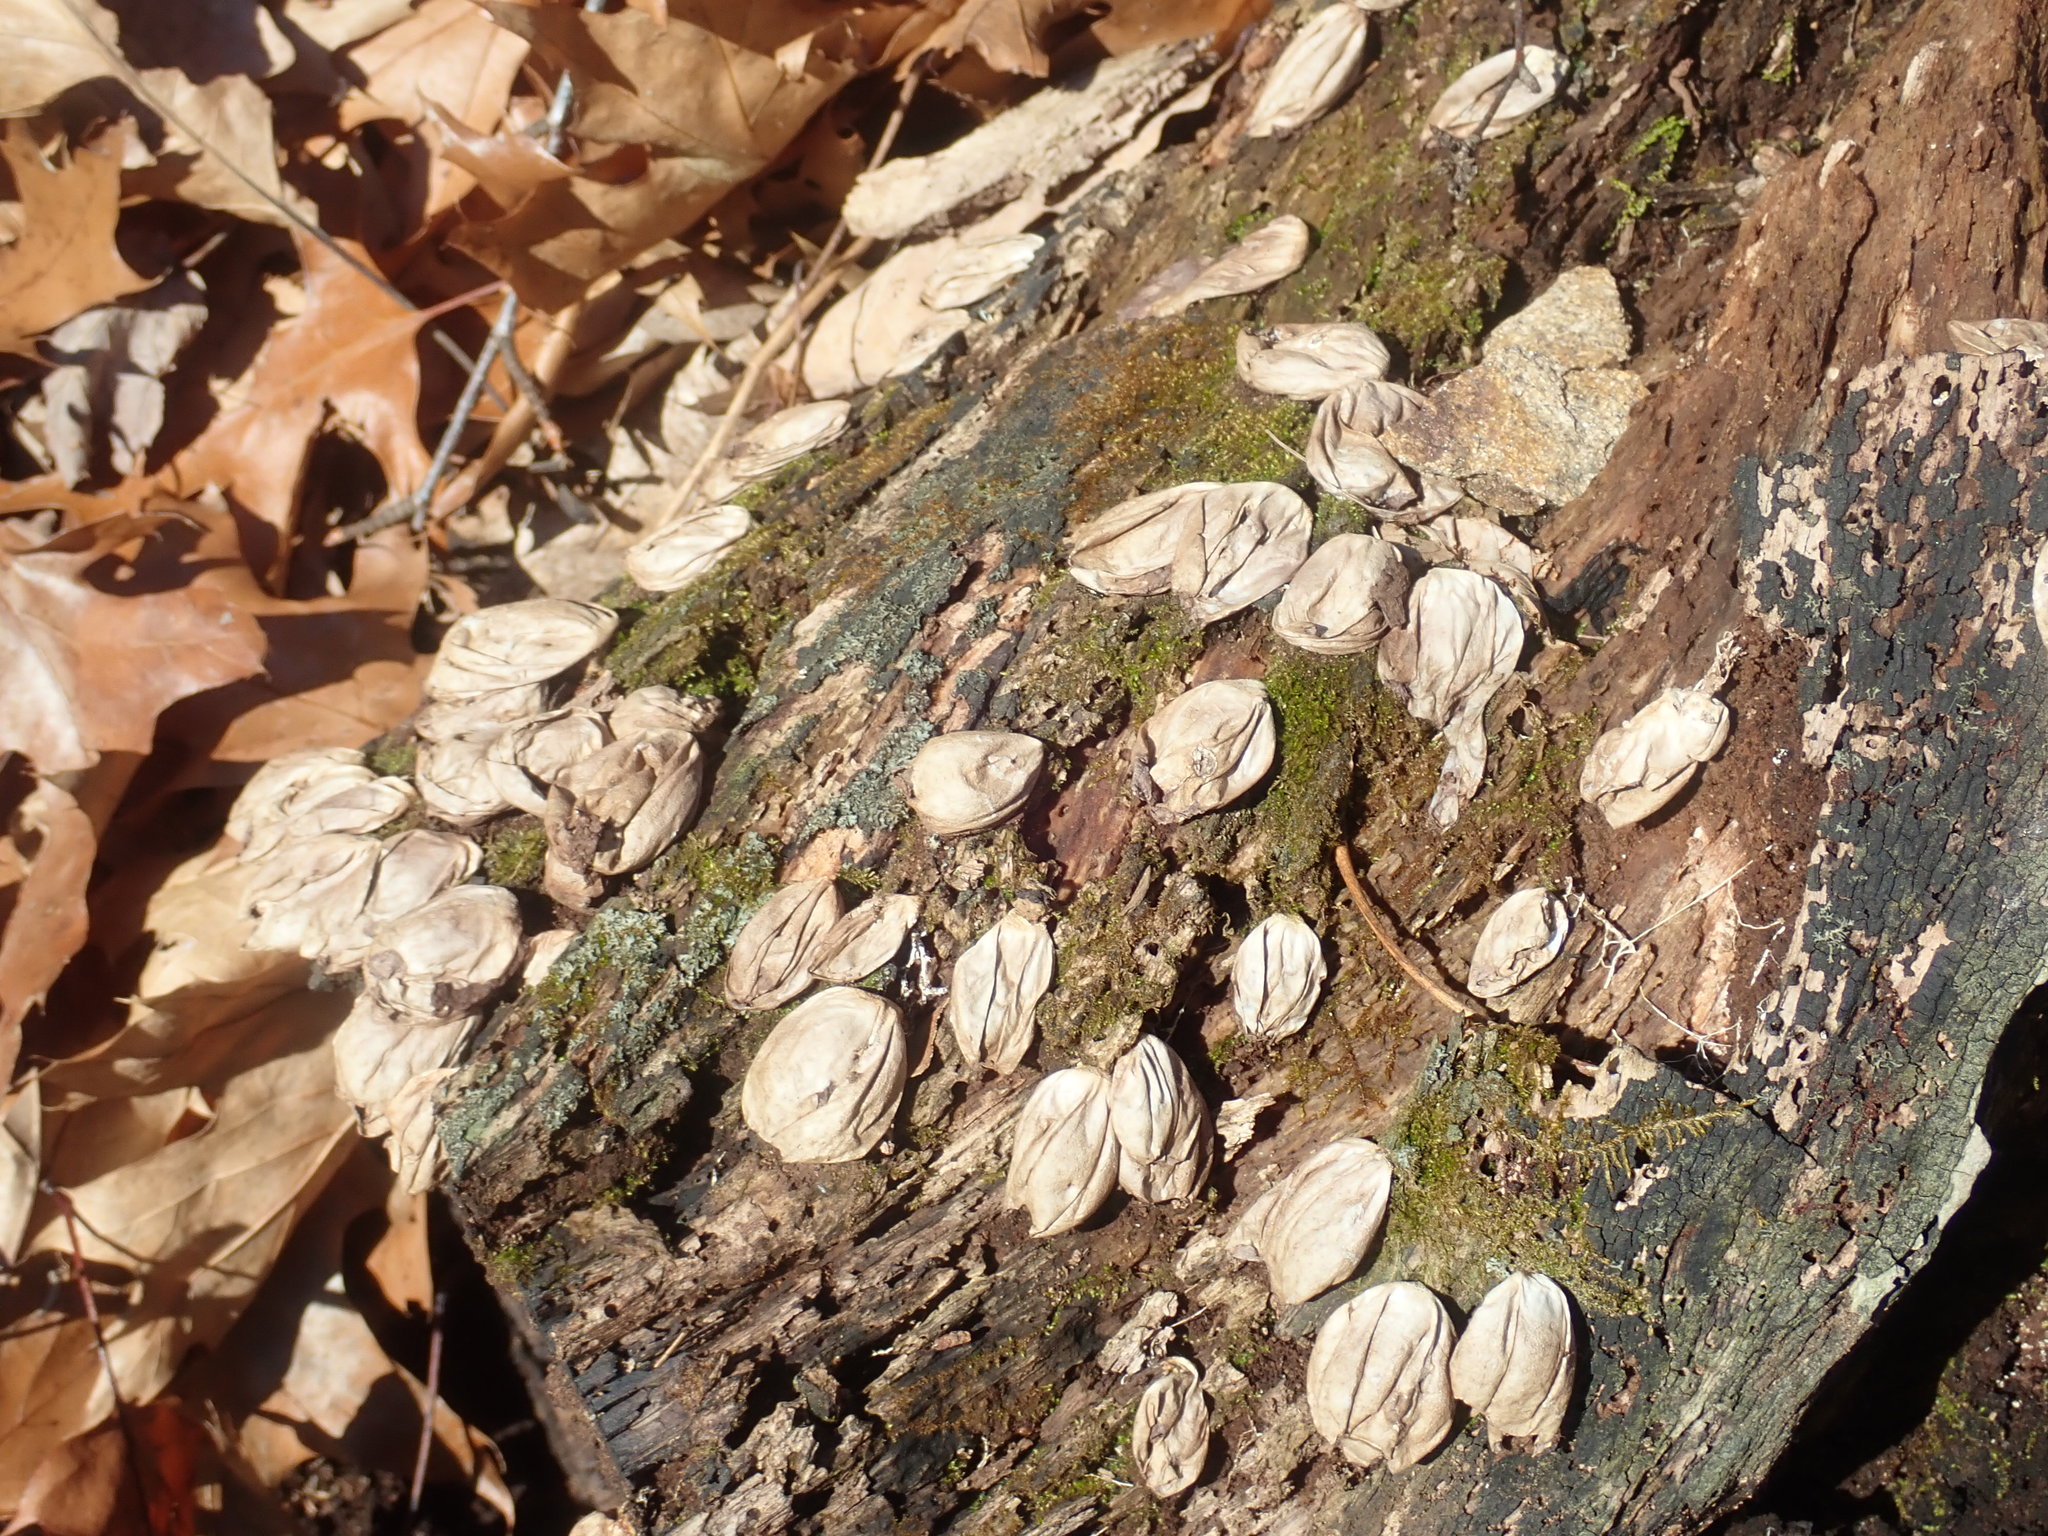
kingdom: Fungi
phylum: Basidiomycota
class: Agaricomycetes
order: Agaricales
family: Lycoperdaceae
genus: Apioperdon
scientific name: Apioperdon pyriforme
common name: Pear-shaped puffball
